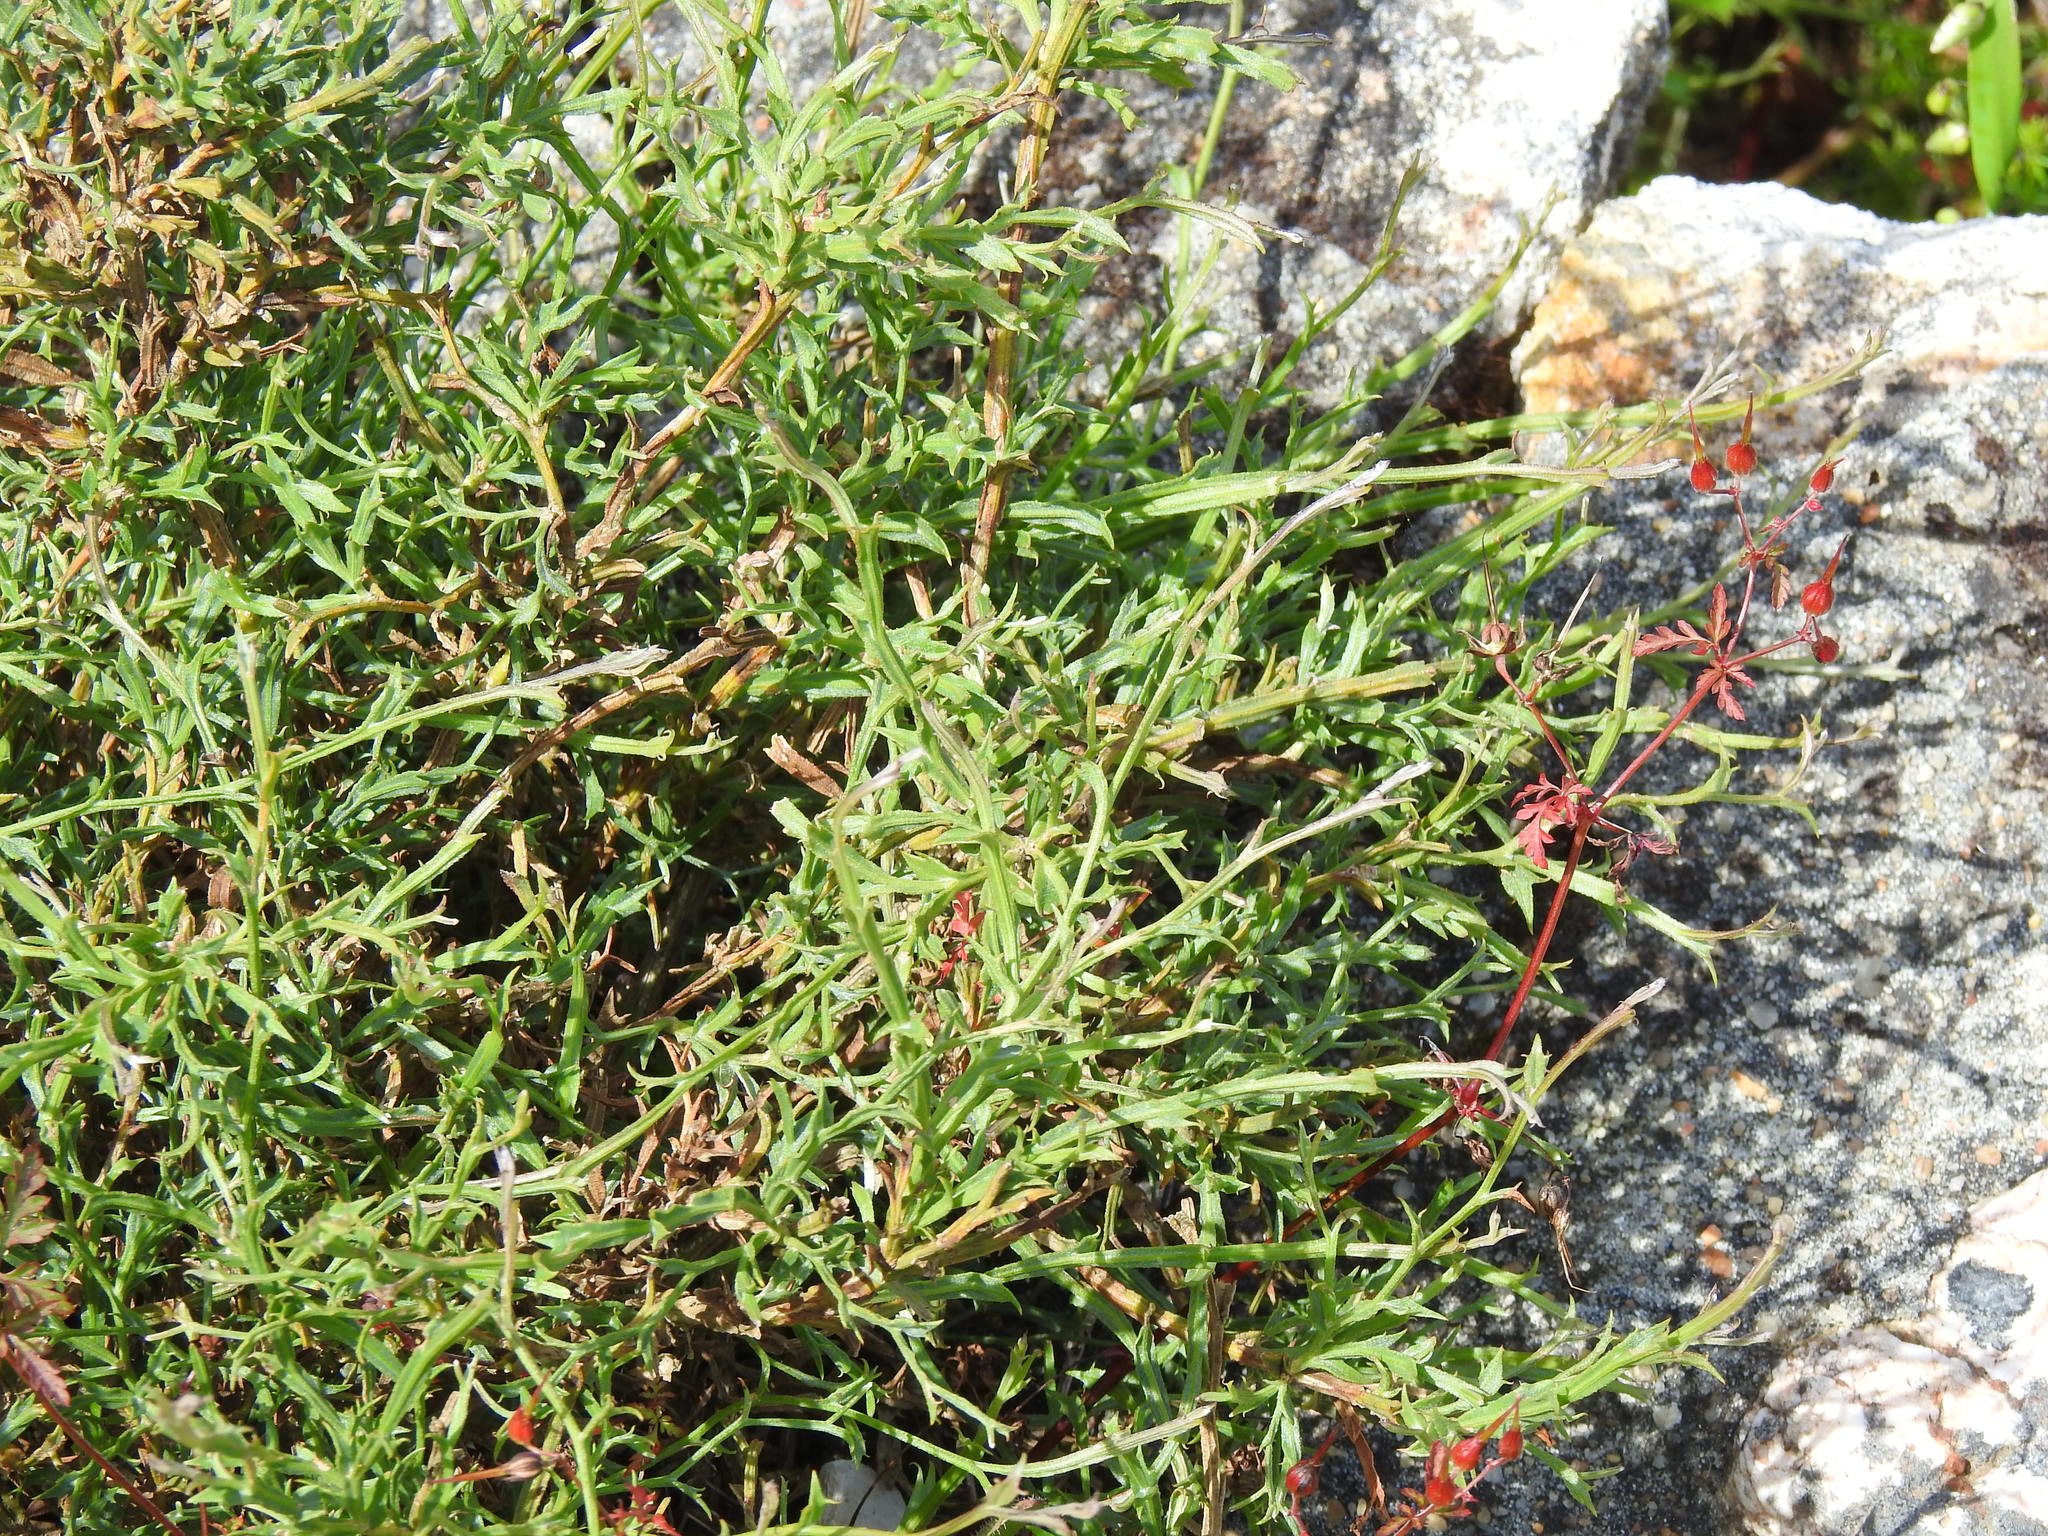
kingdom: Plantae
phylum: Tracheophyta
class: Magnoliopsida
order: Fabales
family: Fabaceae
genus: Genista
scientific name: Genista tridentata
